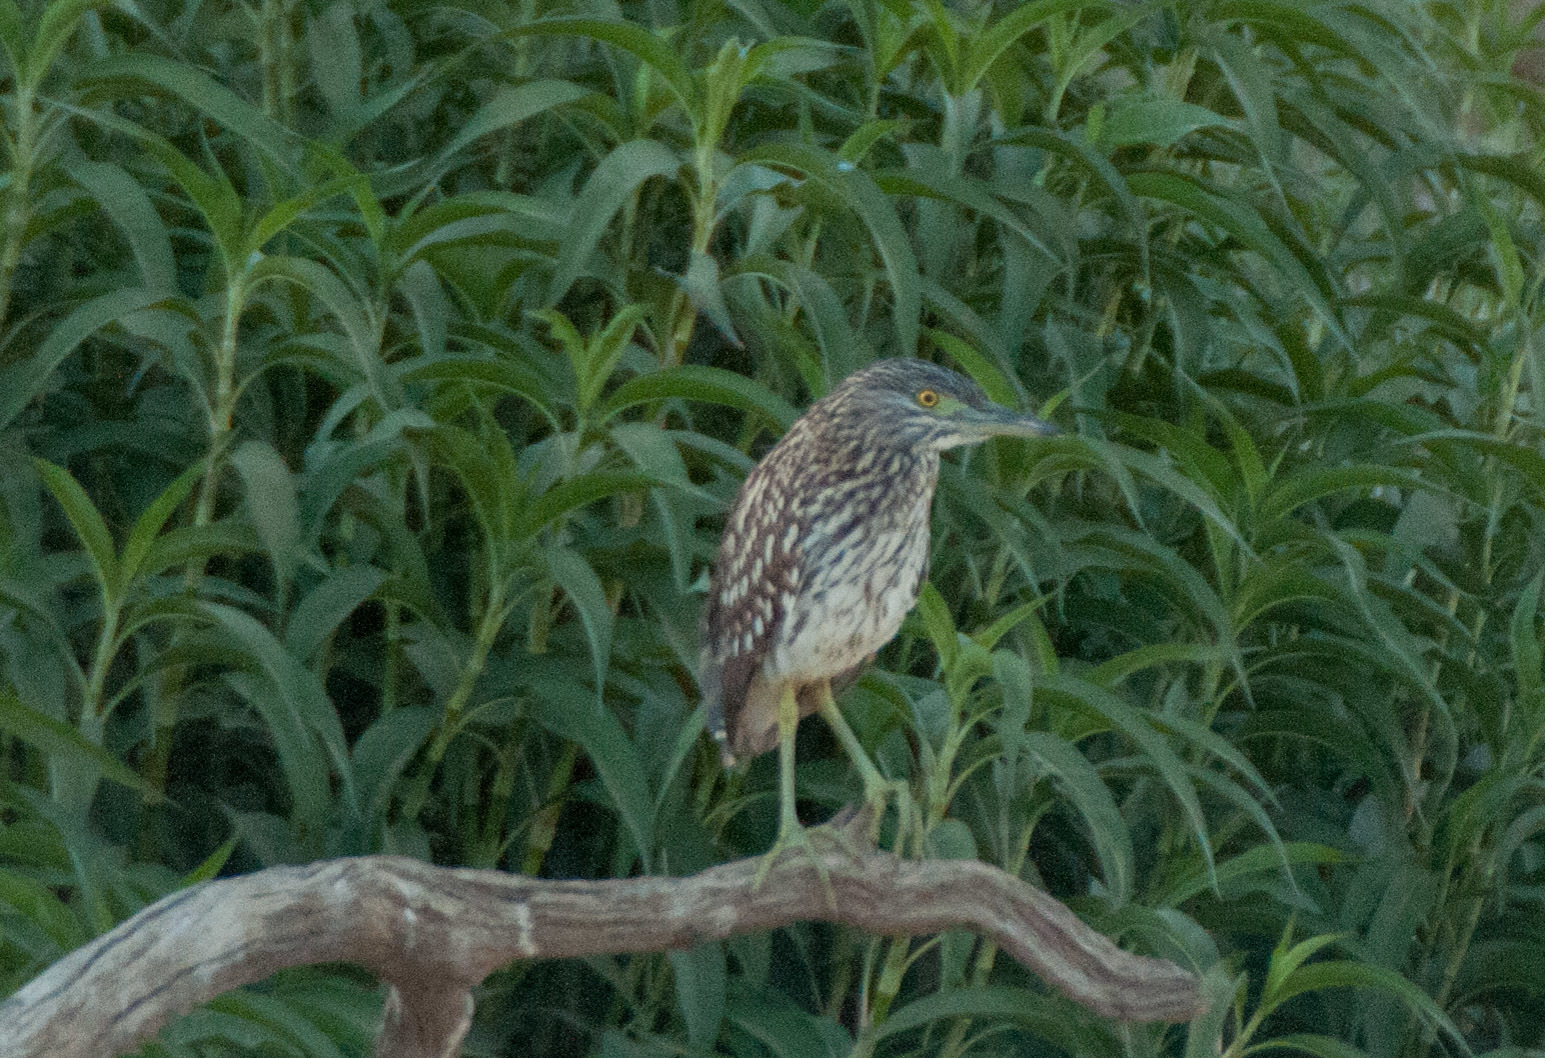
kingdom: Animalia
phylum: Chordata
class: Aves
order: Pelecaniformes
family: Ardeidae
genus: Nycticorax
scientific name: Nycticorax caledonicus
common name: Rufous night-heron
